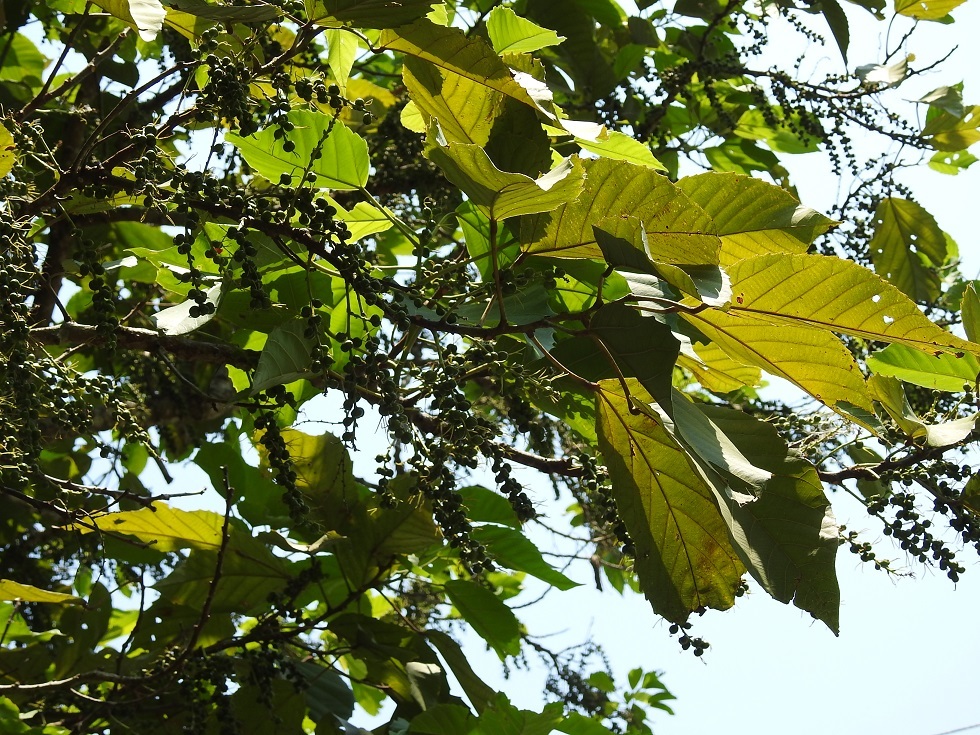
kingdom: Plantae
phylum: Tracheophyta
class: Magnoliopsida
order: Malpighiales
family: Euphorbiaceae
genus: Alchornea
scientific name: Alchornea latifolia
